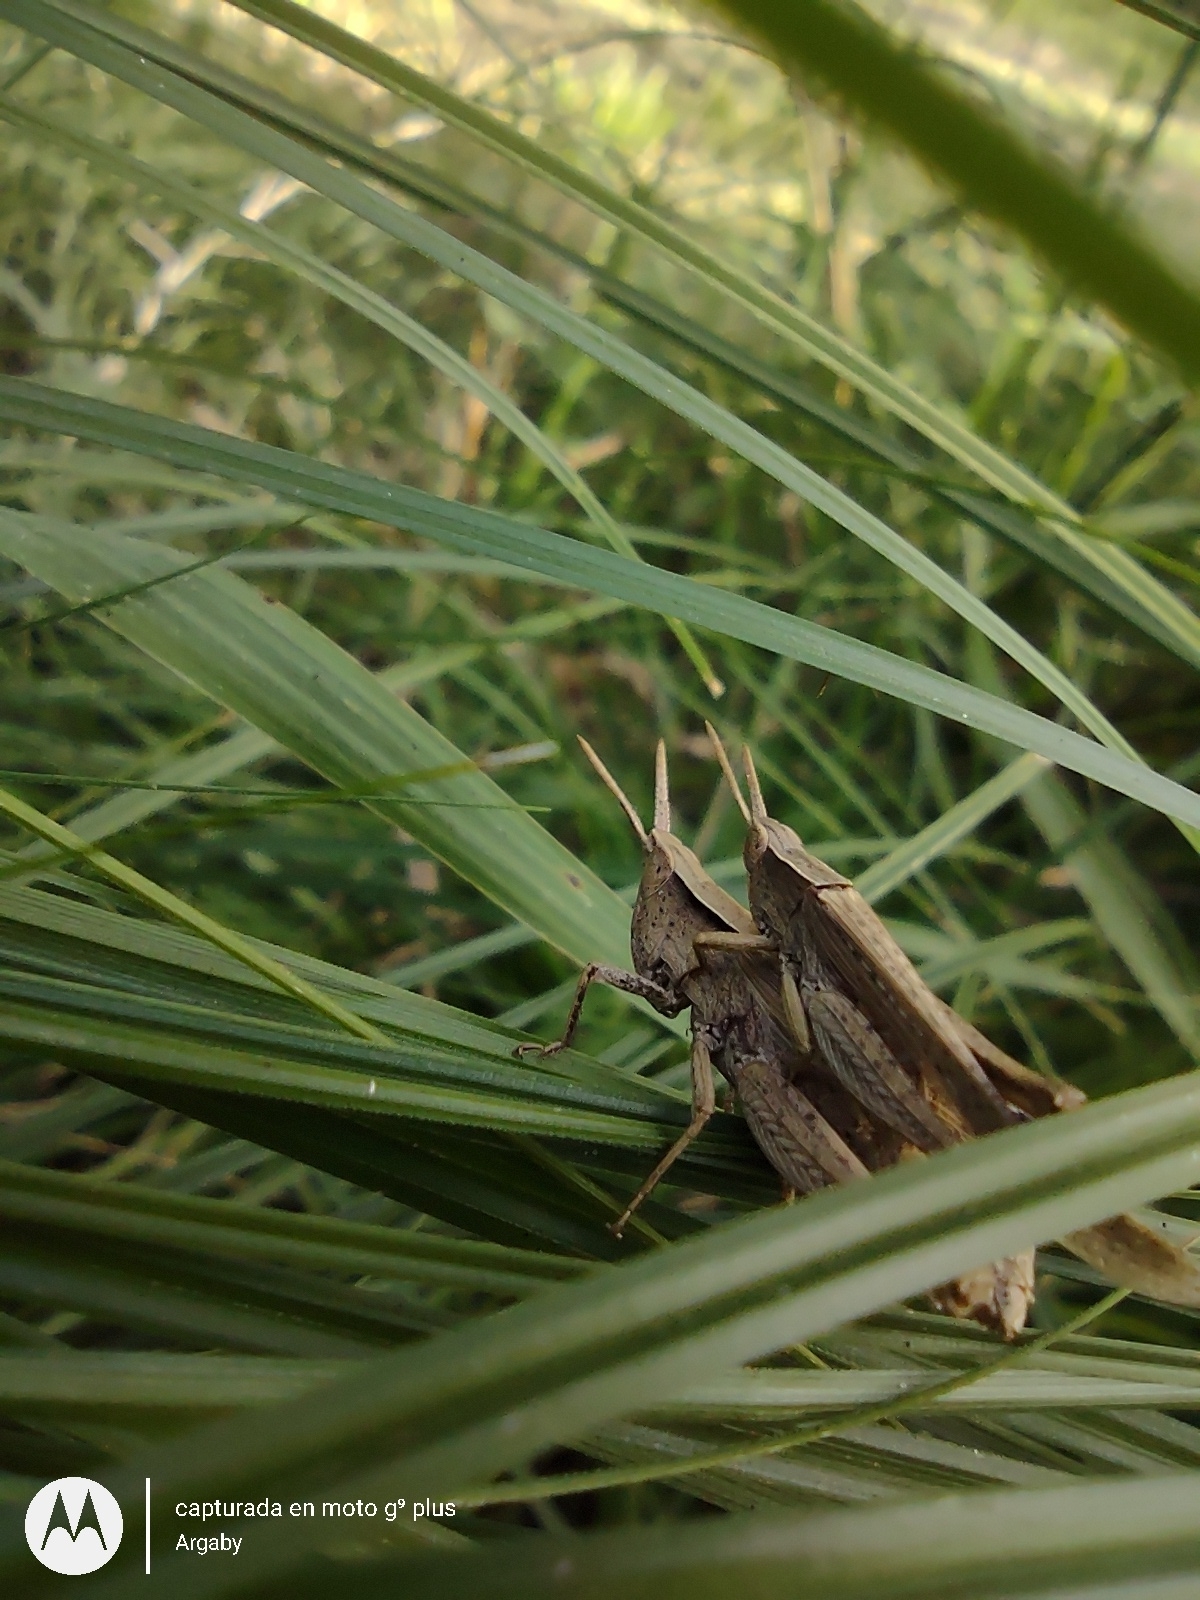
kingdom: Animalia
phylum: Arthropoda
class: Insecta
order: Orthoptera
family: Acrididae
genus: Laplatacris
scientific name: Laplatacris dispar
